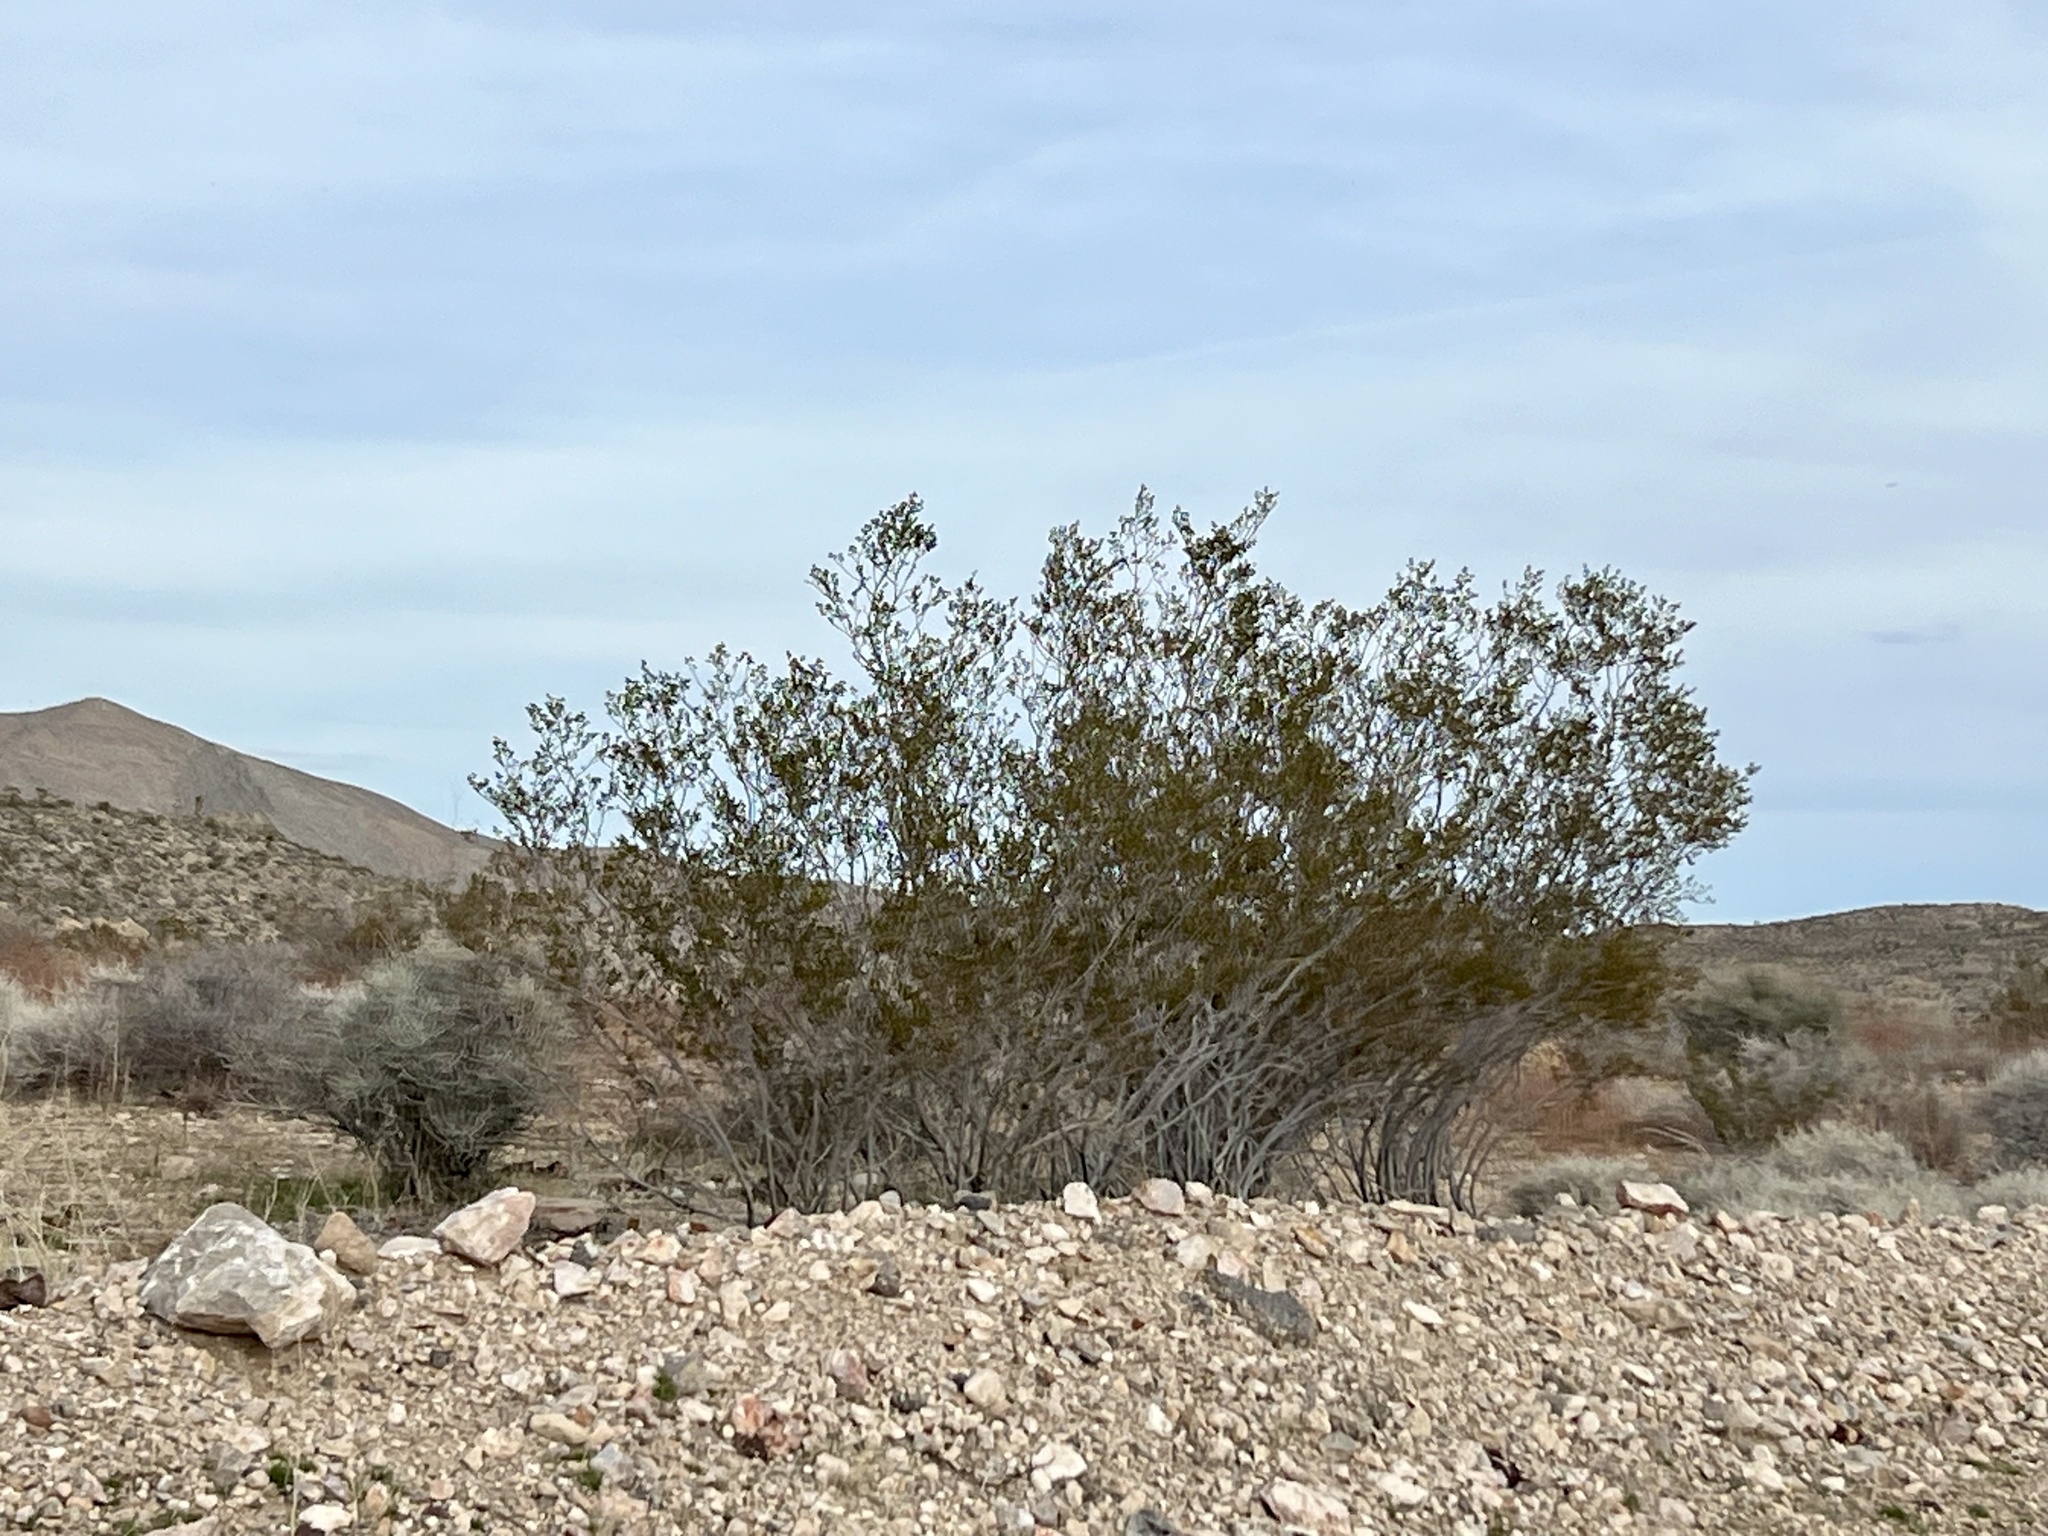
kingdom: Plantae
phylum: Tracheophyta
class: Magnoliopsida
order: Zygophyllales
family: Zygophyllaceae
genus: Larrea
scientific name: Larrea tridentata
